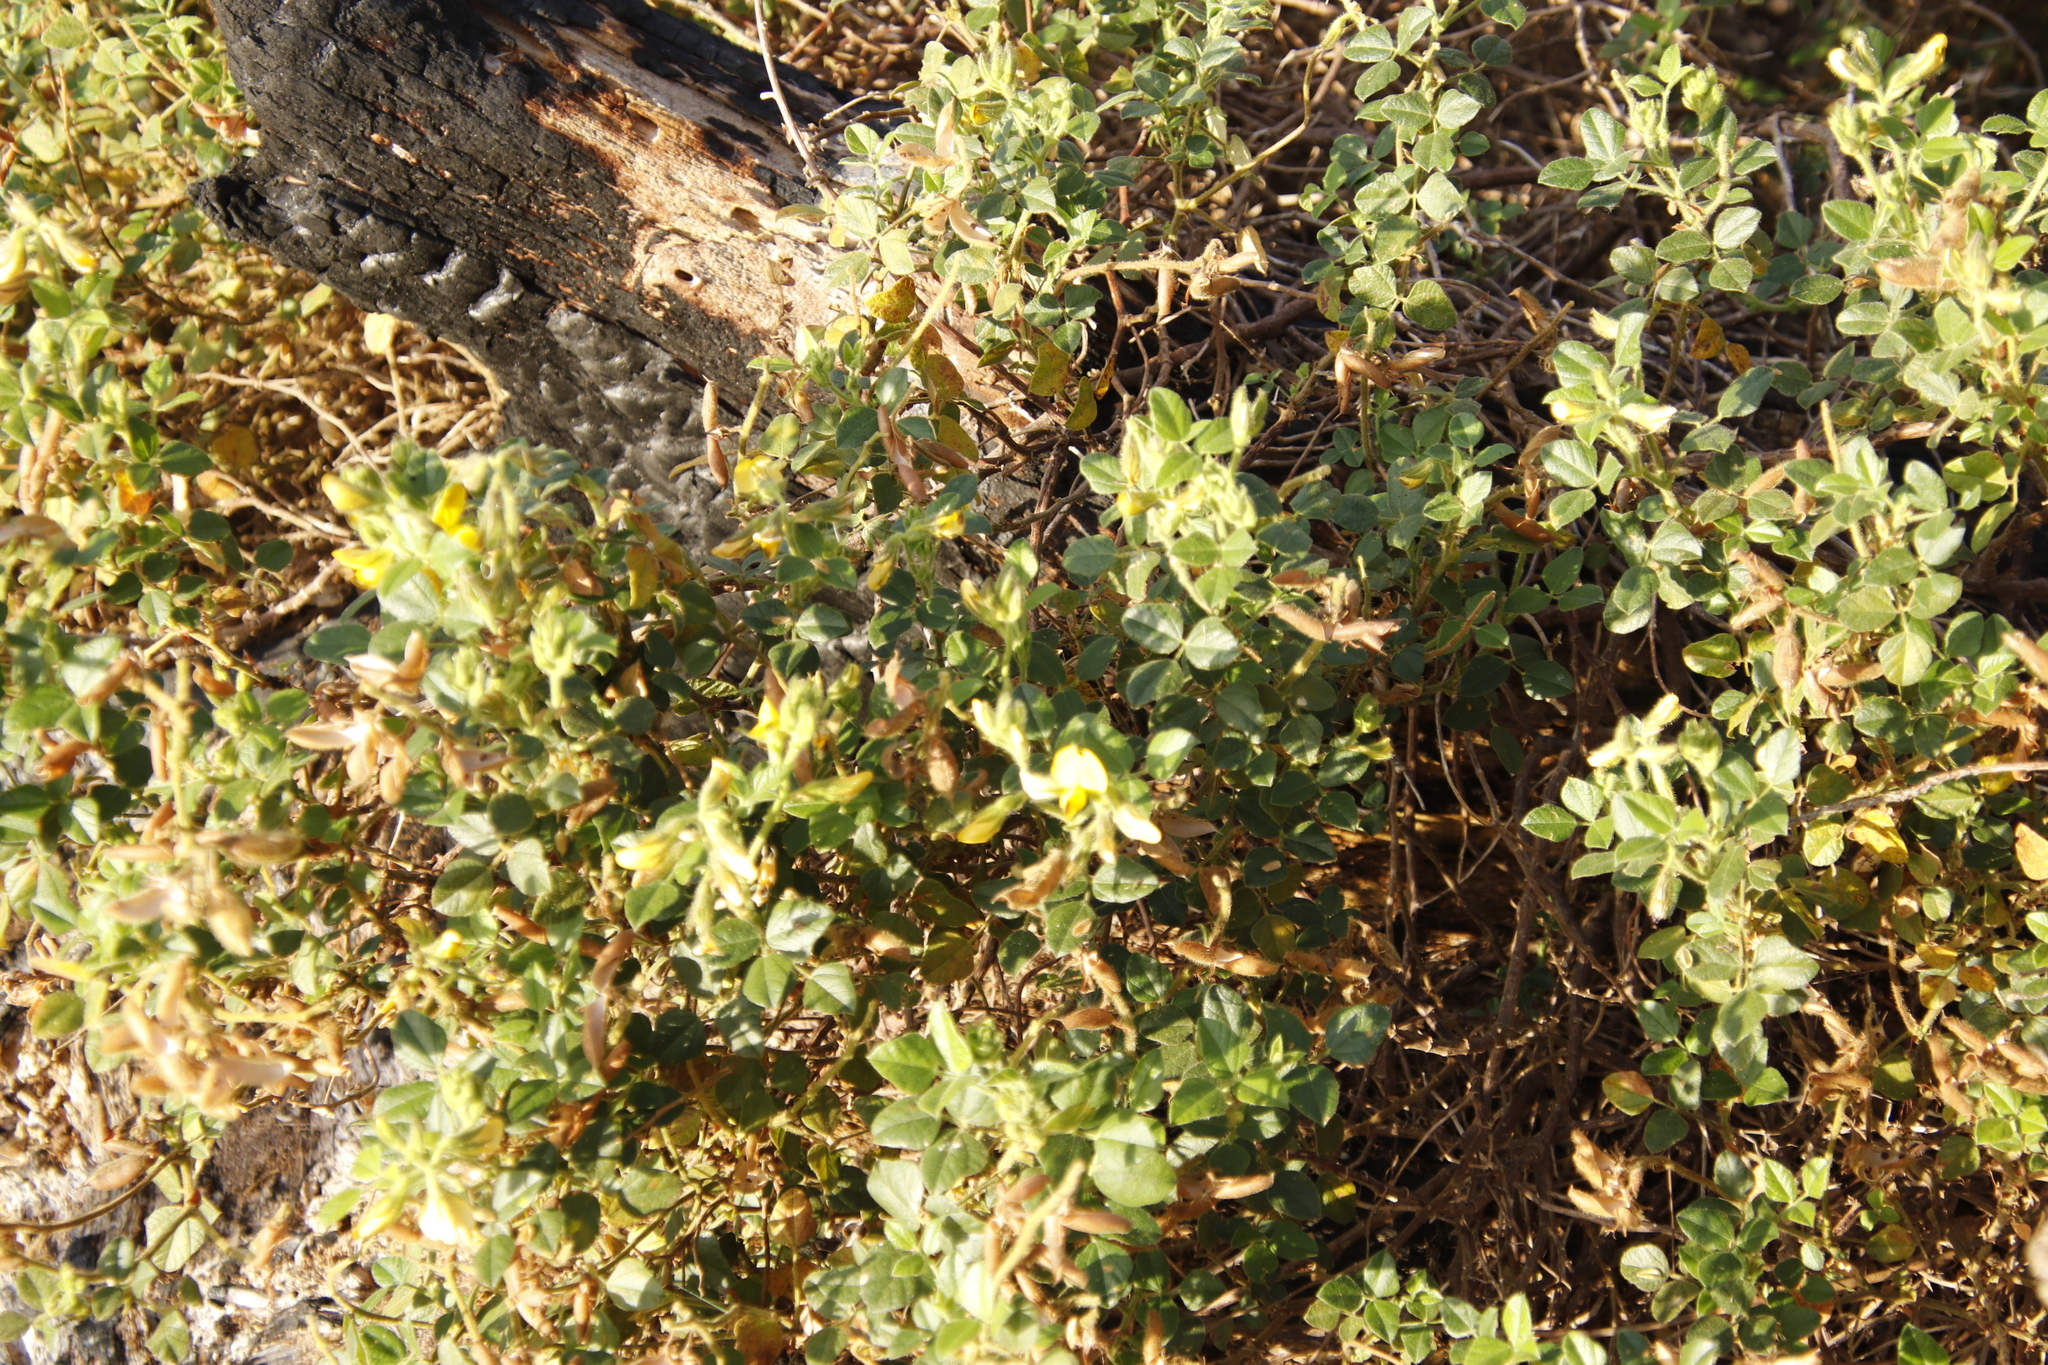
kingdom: Plantae
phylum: Tracheophyta
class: Magnoliopsida
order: Fabales
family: Fabaceae
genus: Bolusafra
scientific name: Bolusafra bituminosa
